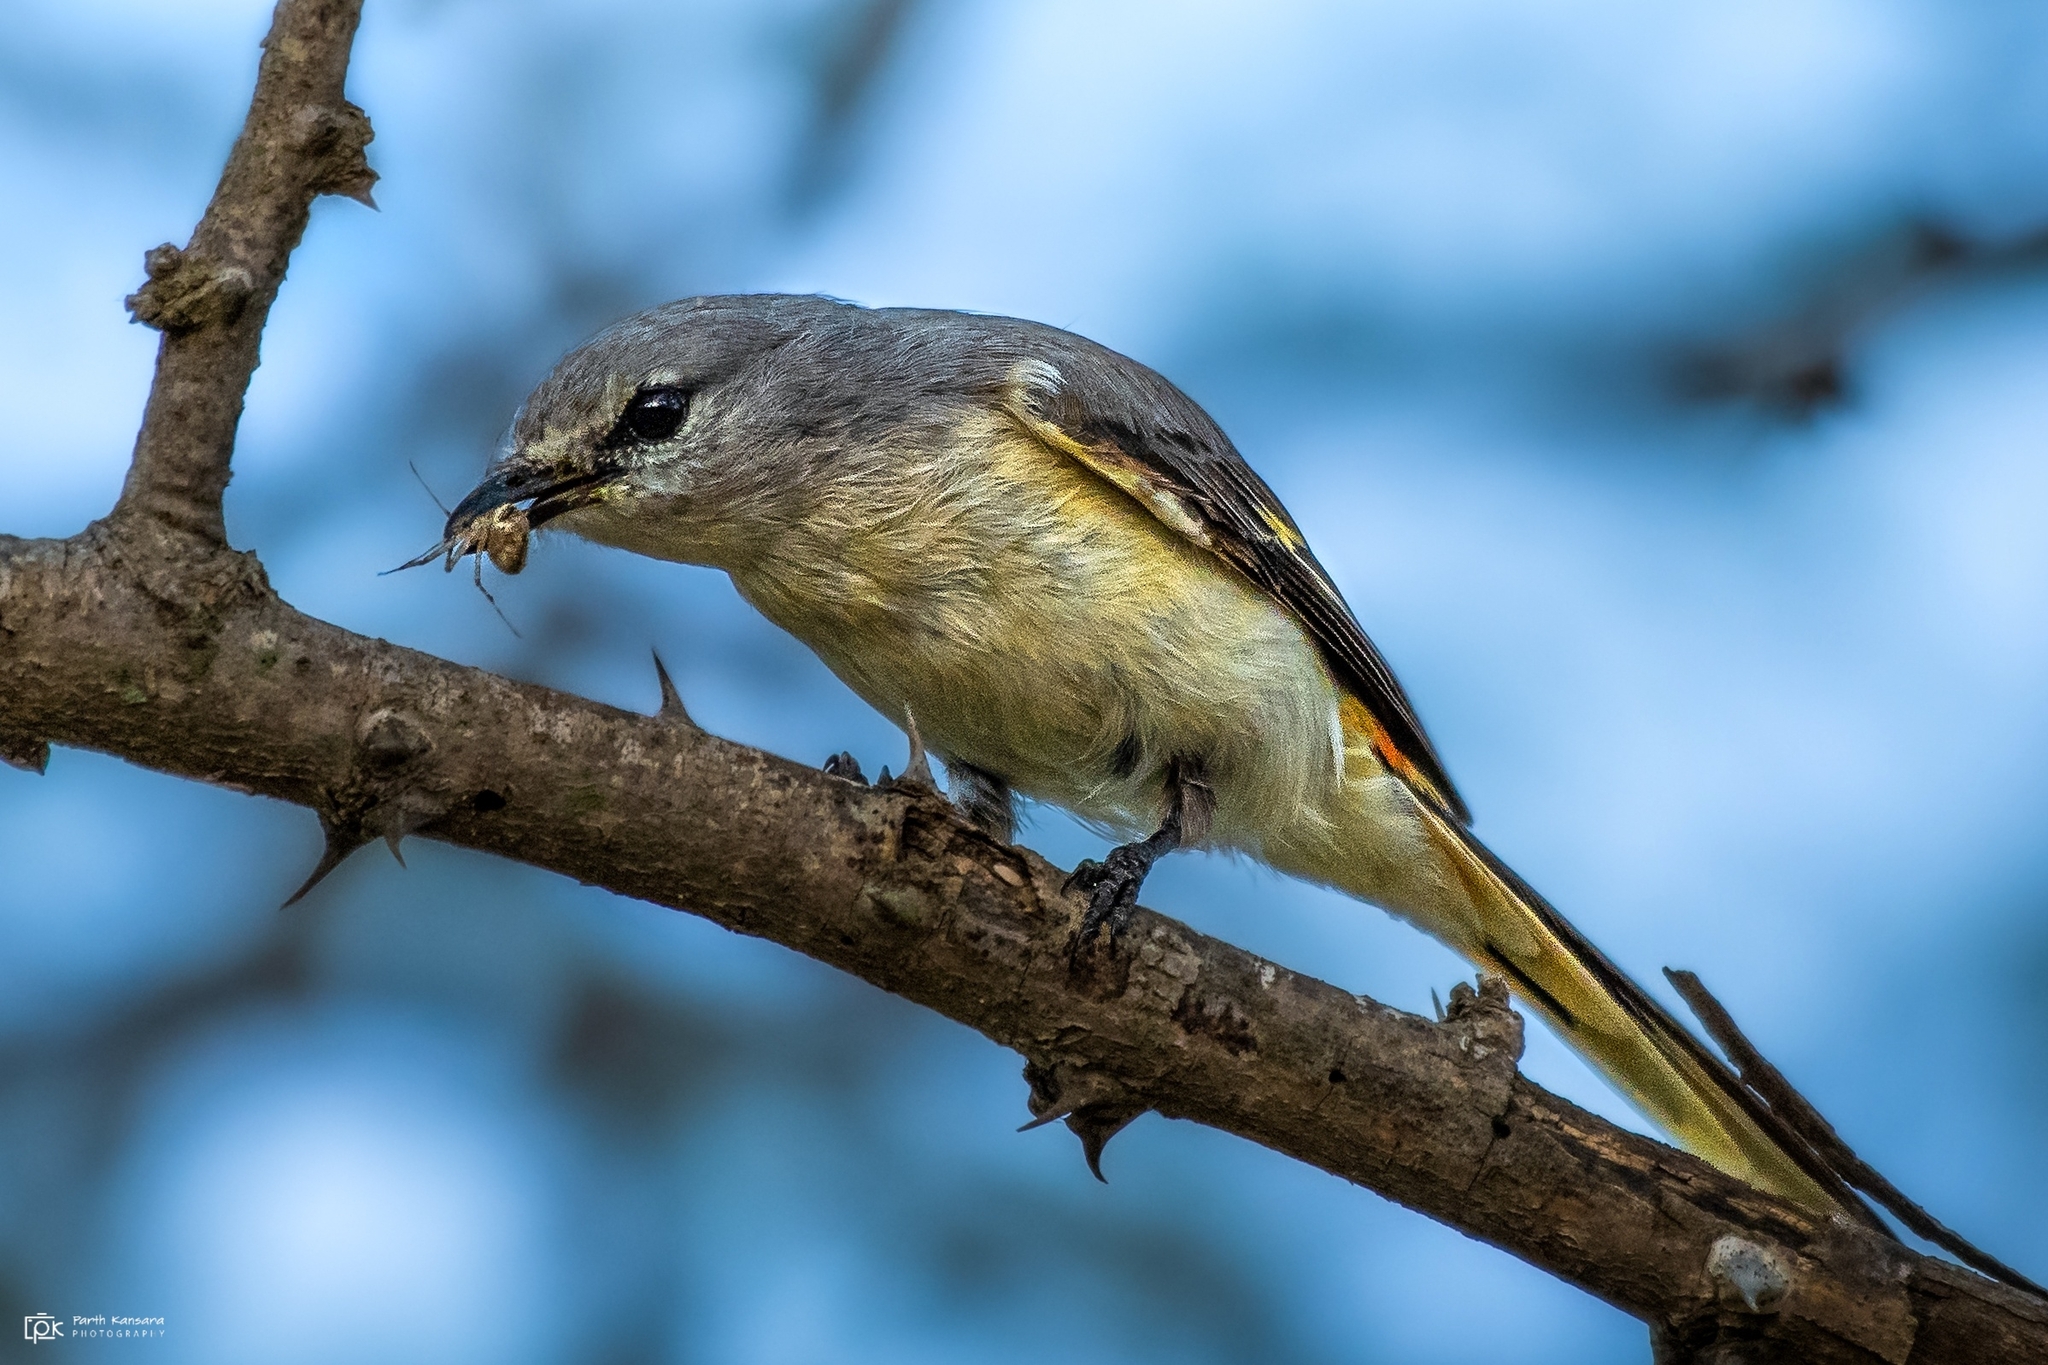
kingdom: Animalia
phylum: Chordata
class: Aves
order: Passeriformes
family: Campephagidae
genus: Pericrocotus
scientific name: Pericrocotus cinnamomeus
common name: Small minivet
